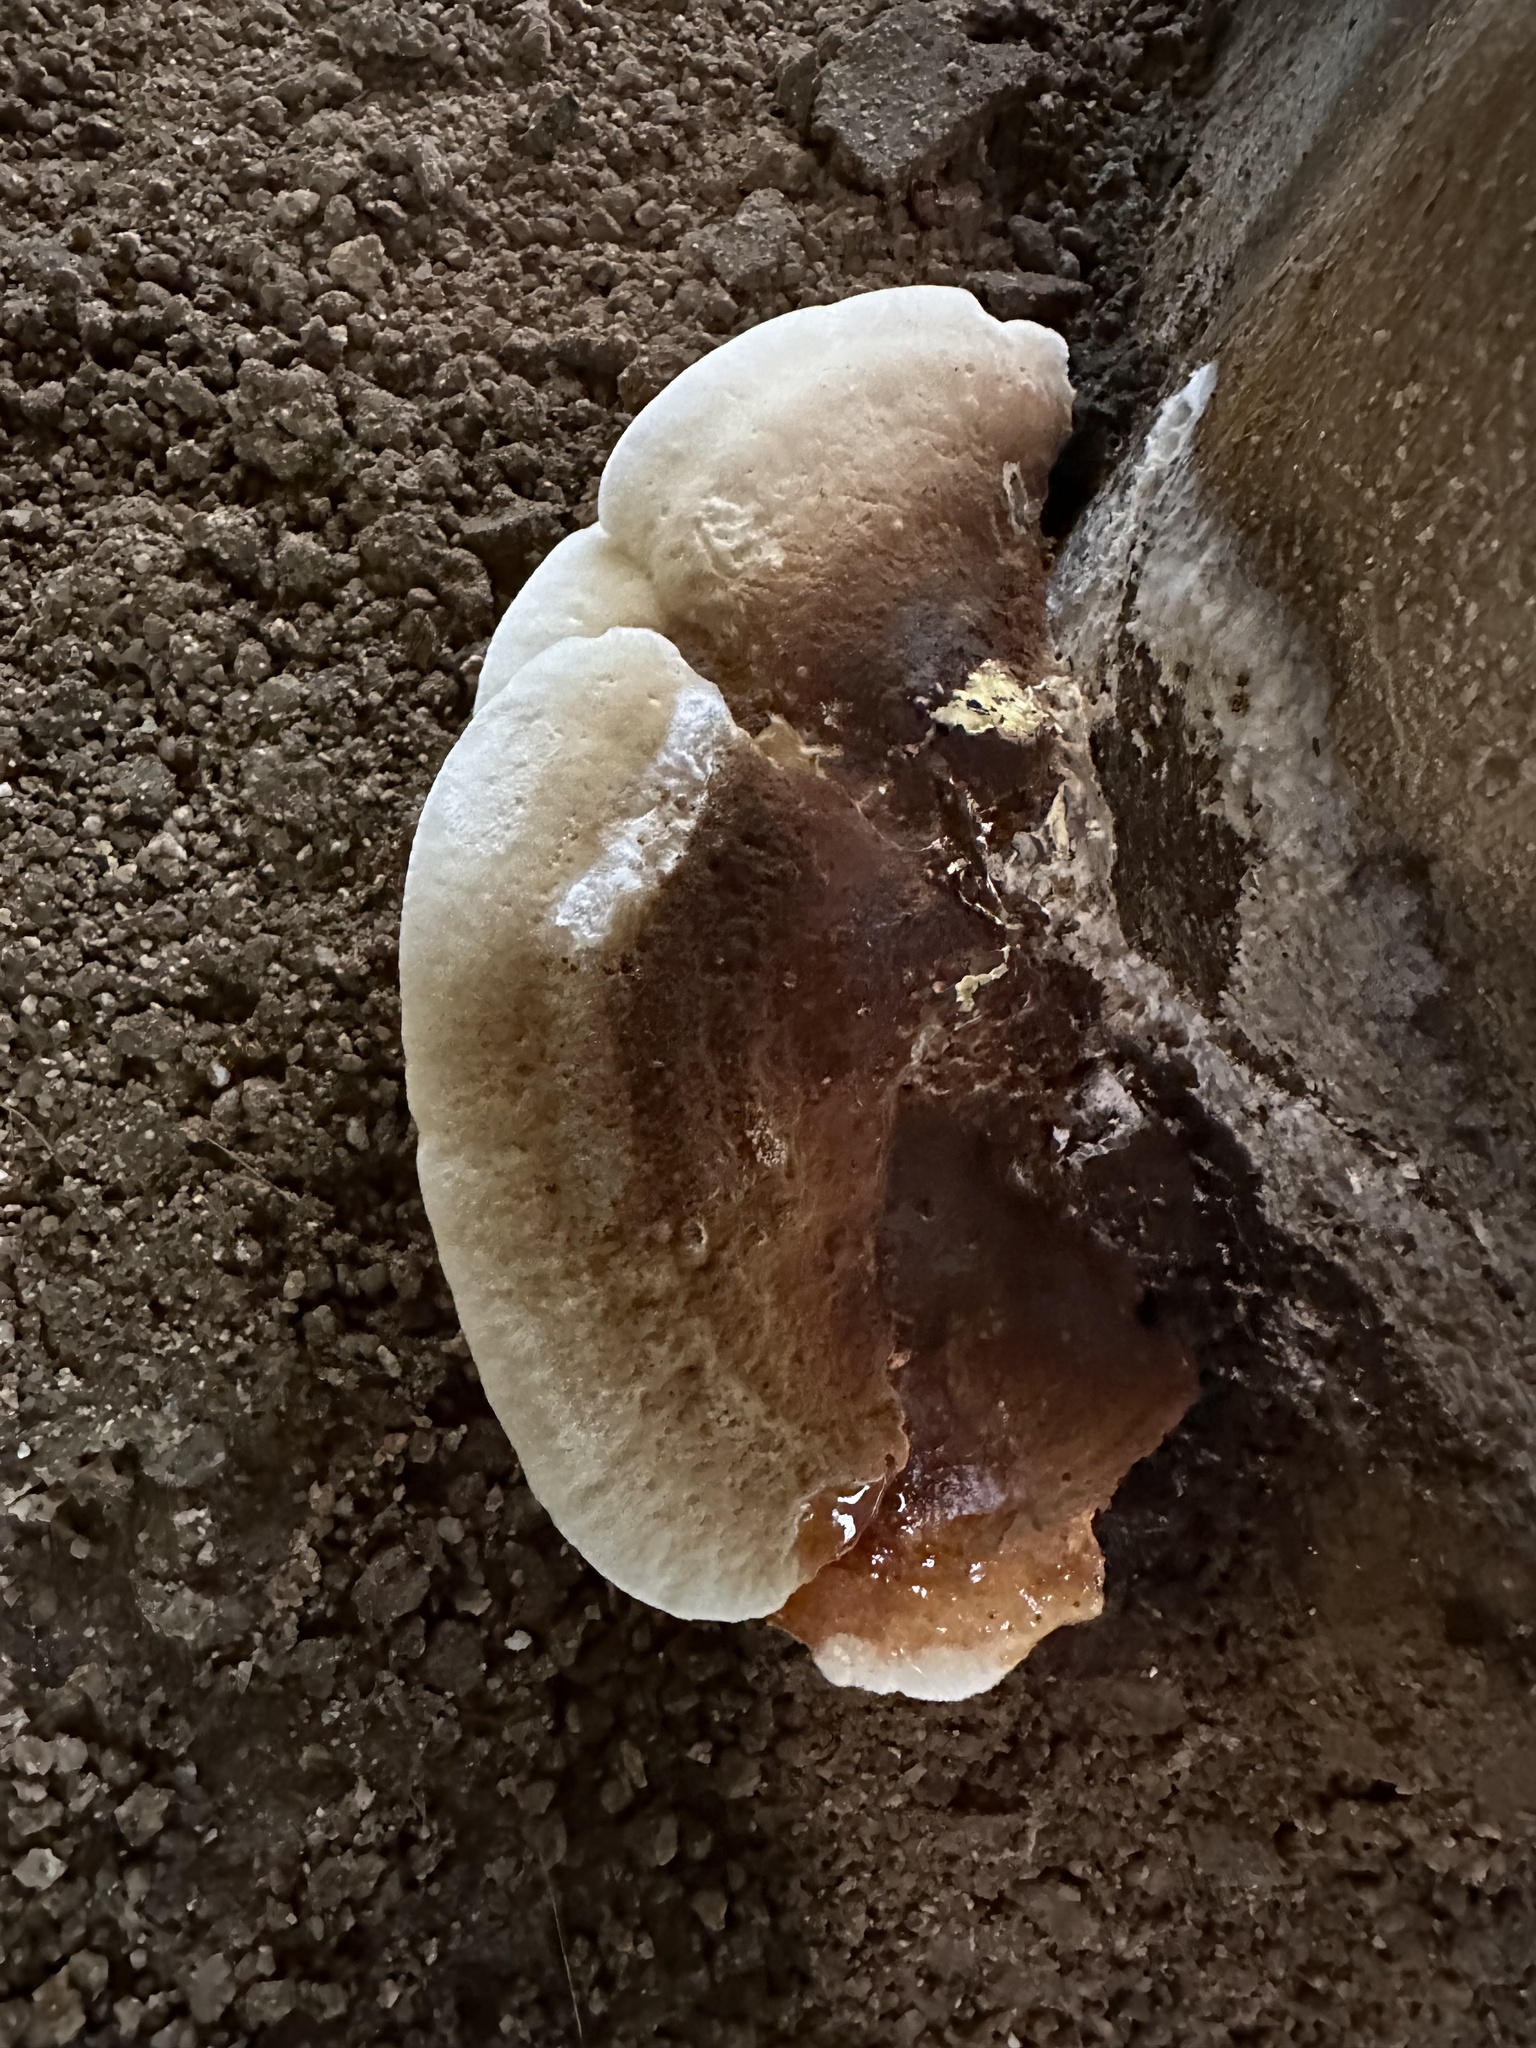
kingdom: Fungi
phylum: Basidiomycota
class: Agaricomycetes
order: Boletales
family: Coniophoraceae
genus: Gyrodontium
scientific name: Gyrodontium sacchari
